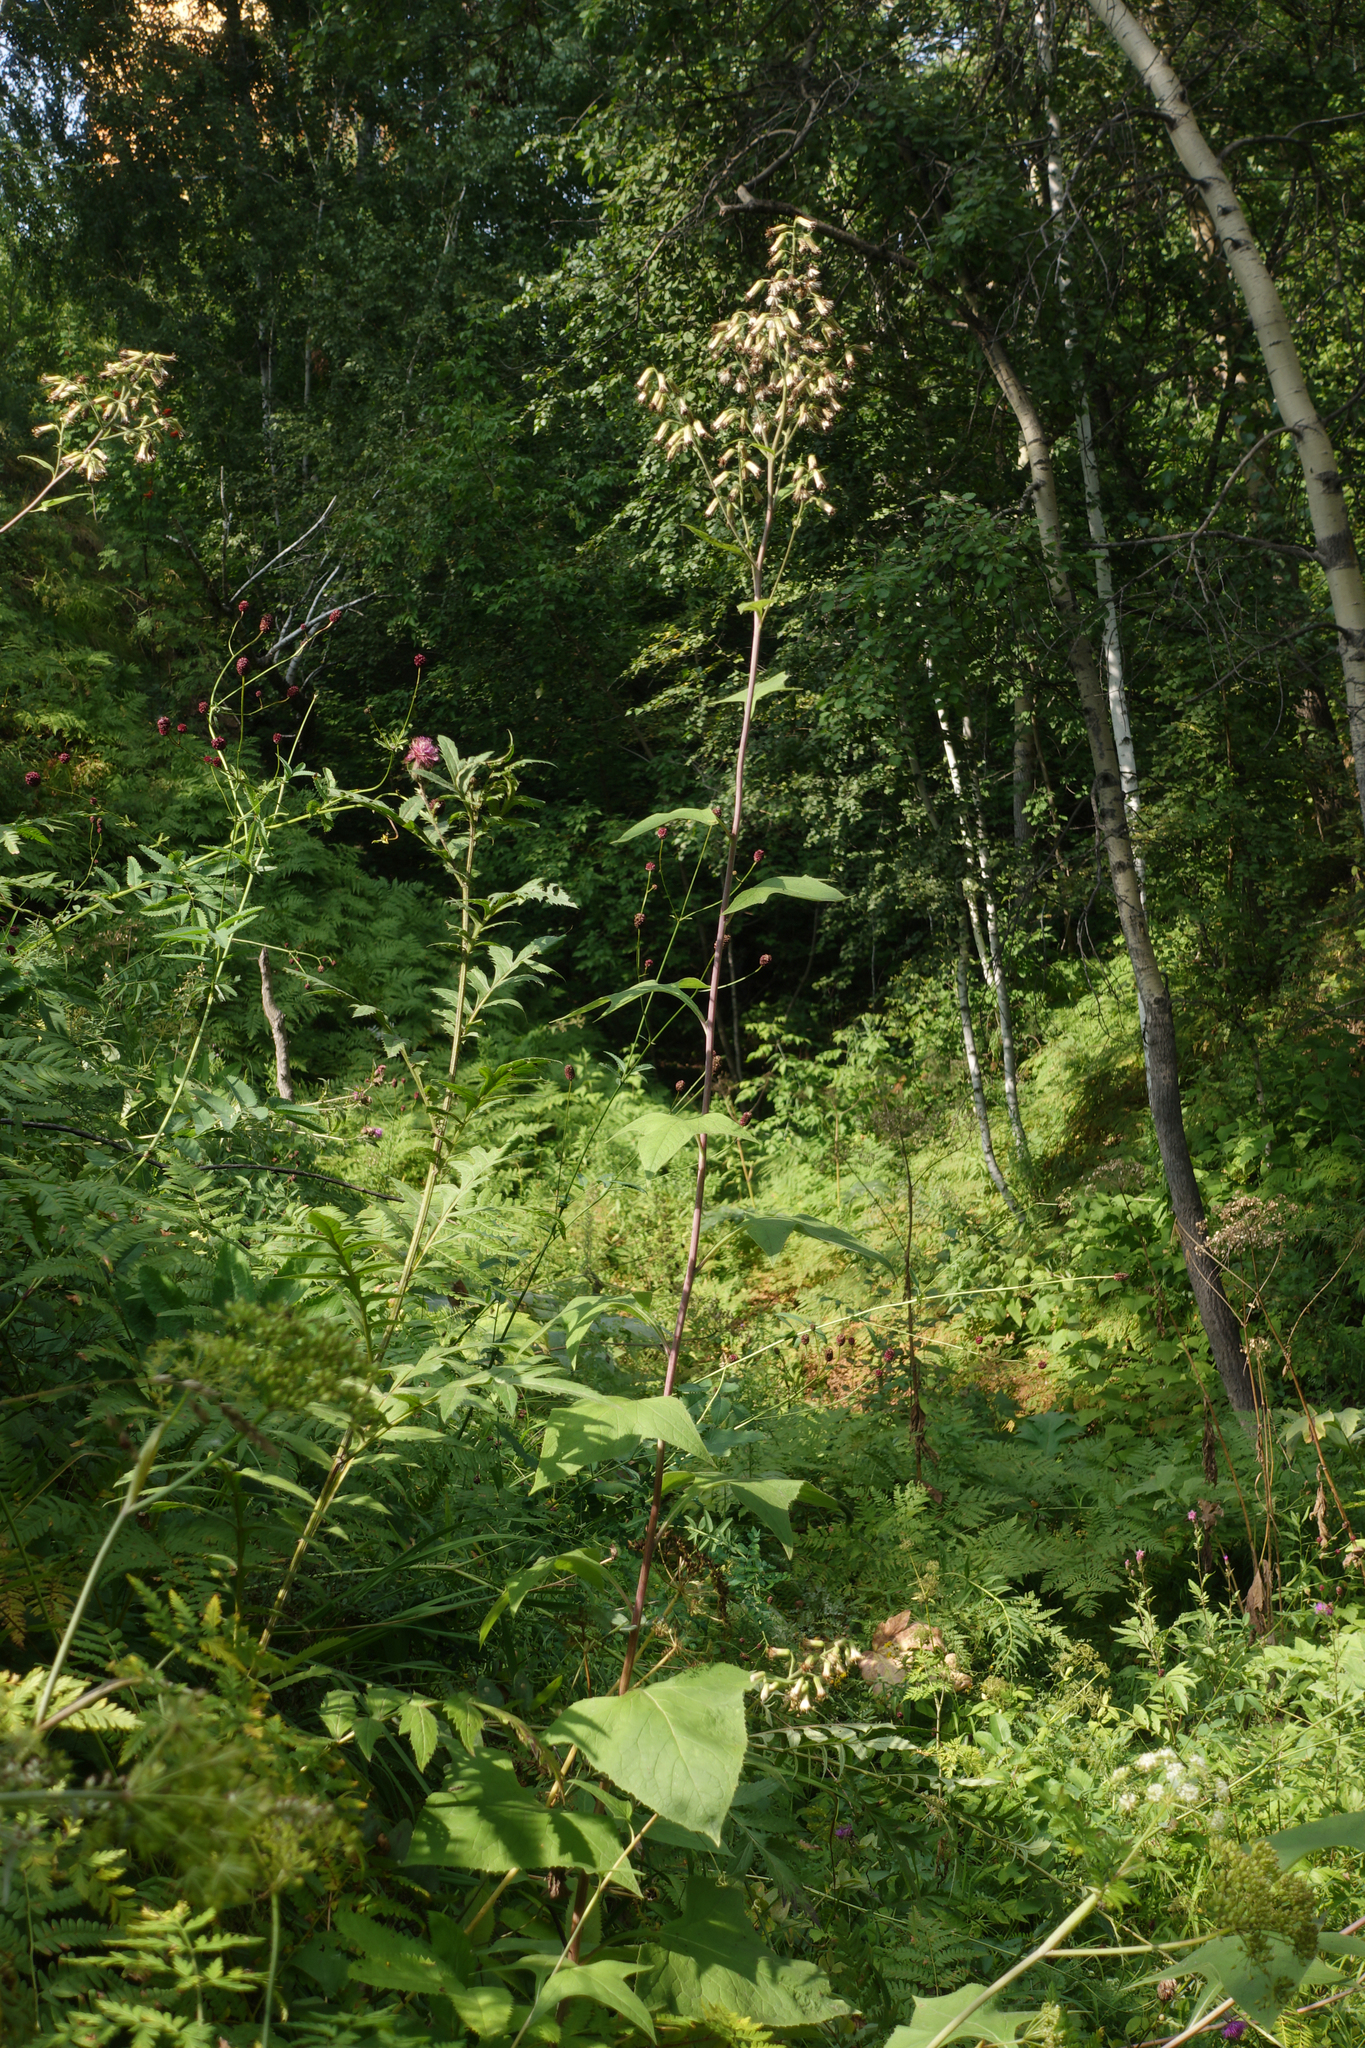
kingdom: Plantae
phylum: Tracheophyta
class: Magnoliopsida
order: Asterales
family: Asteraceae
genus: Parasenecio
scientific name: Parasenecio hastatus
